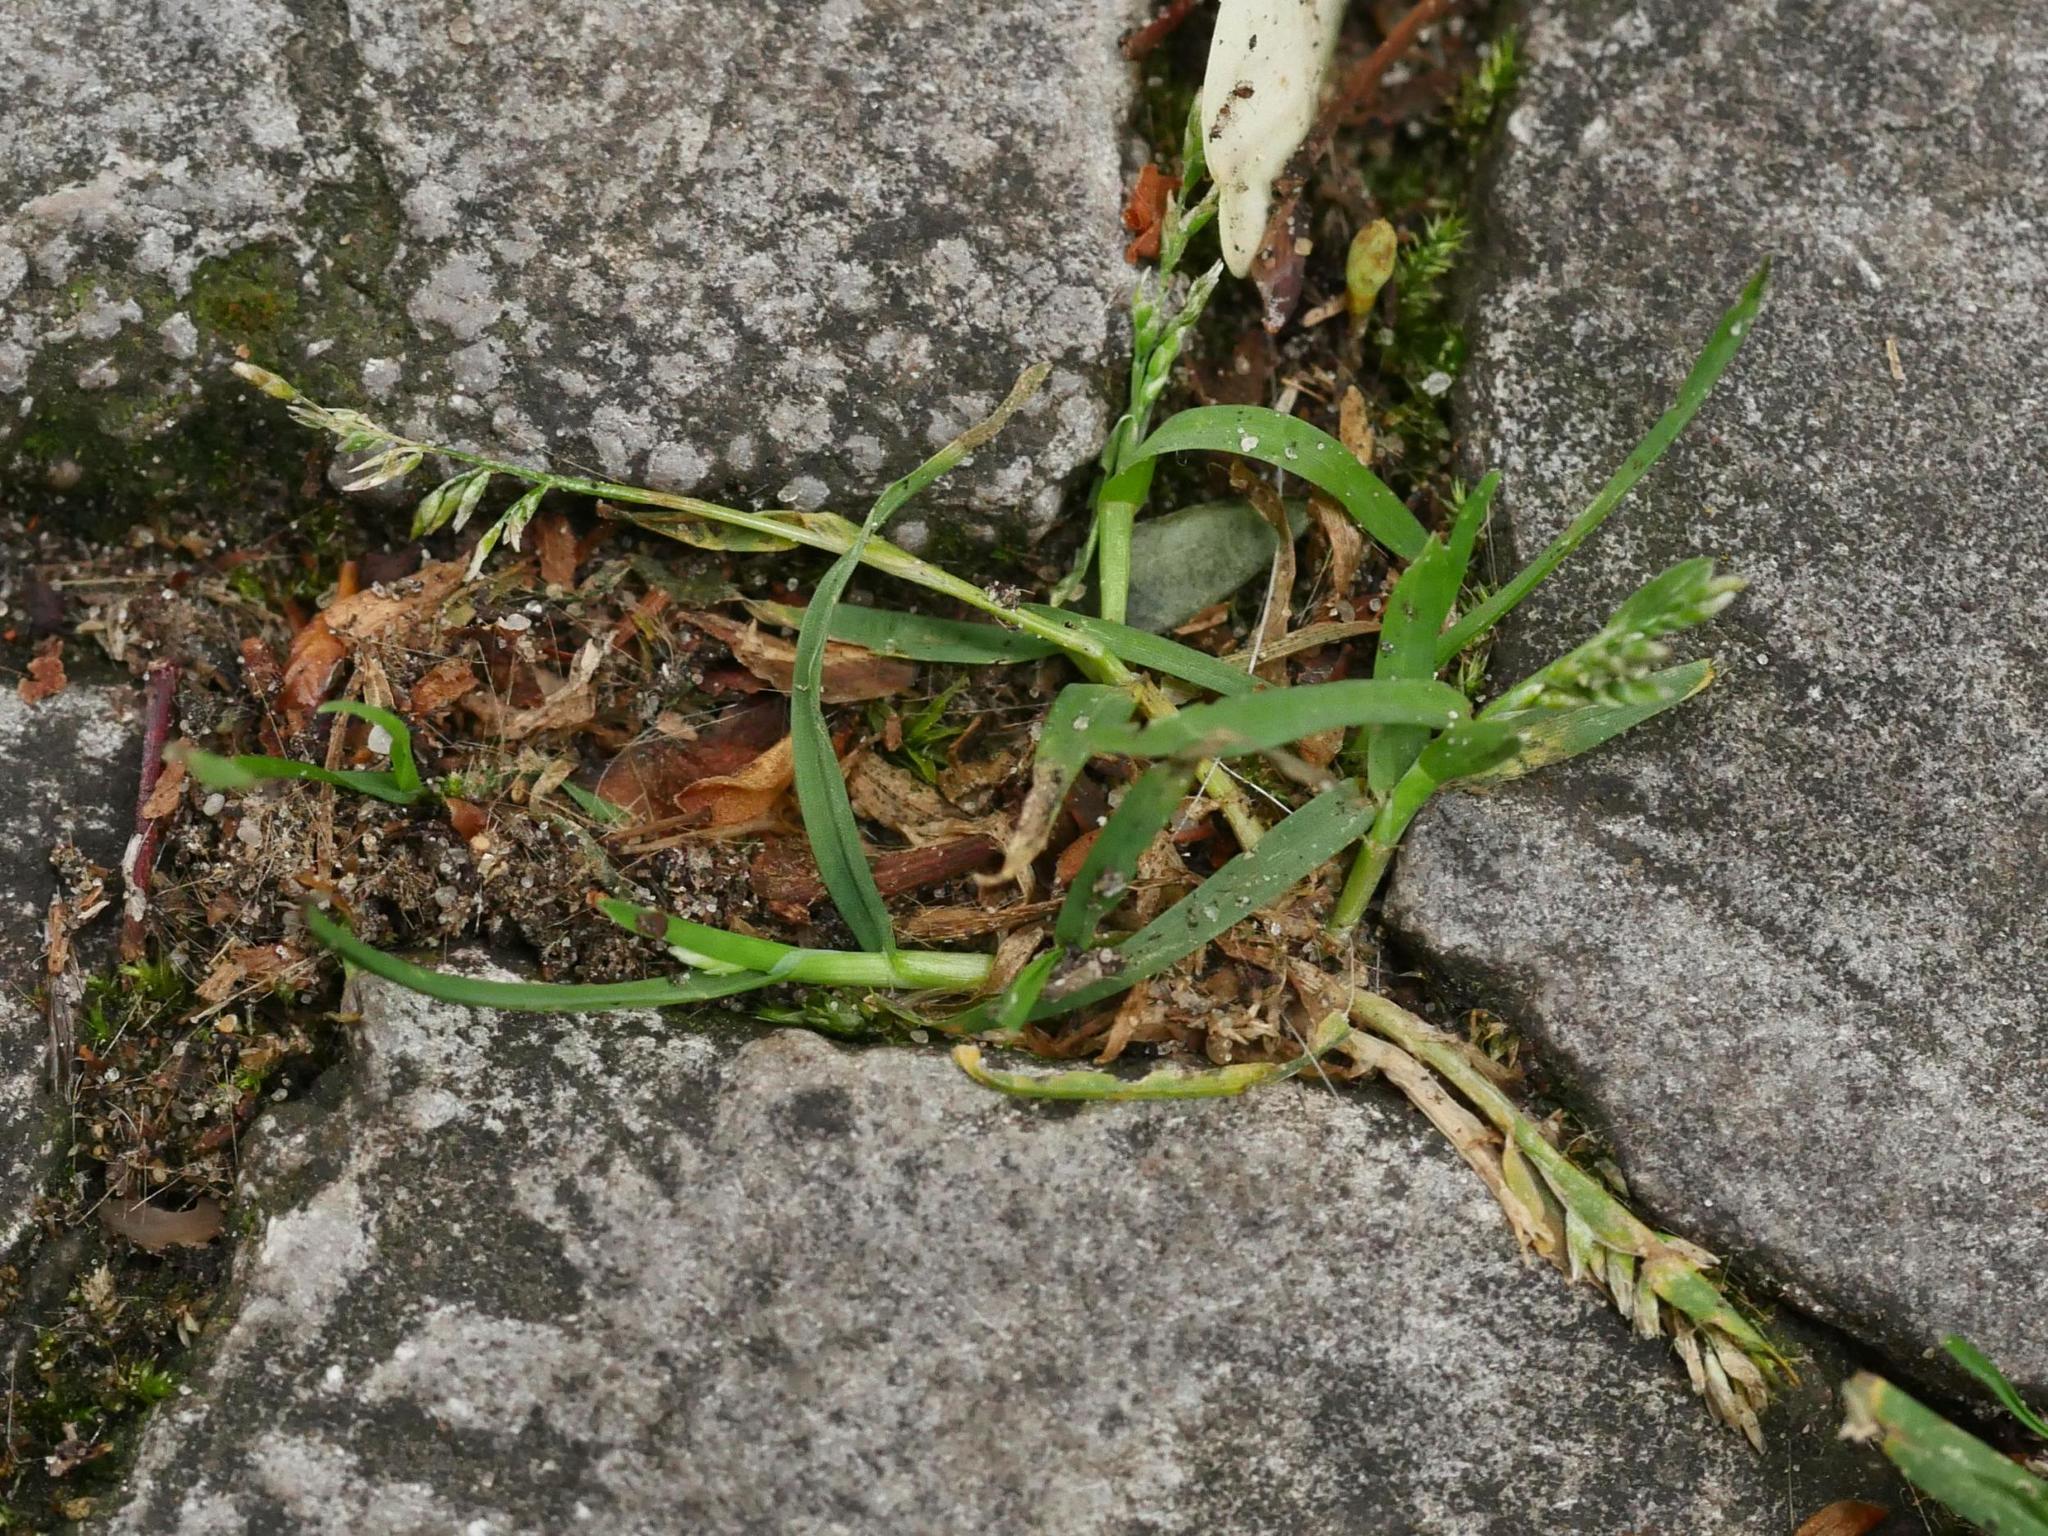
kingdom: Plantae
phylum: Tracheophyta
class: Liliopsida
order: Poales
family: Poaceae
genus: Poa
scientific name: Poa annua
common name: Annual bluegrass
